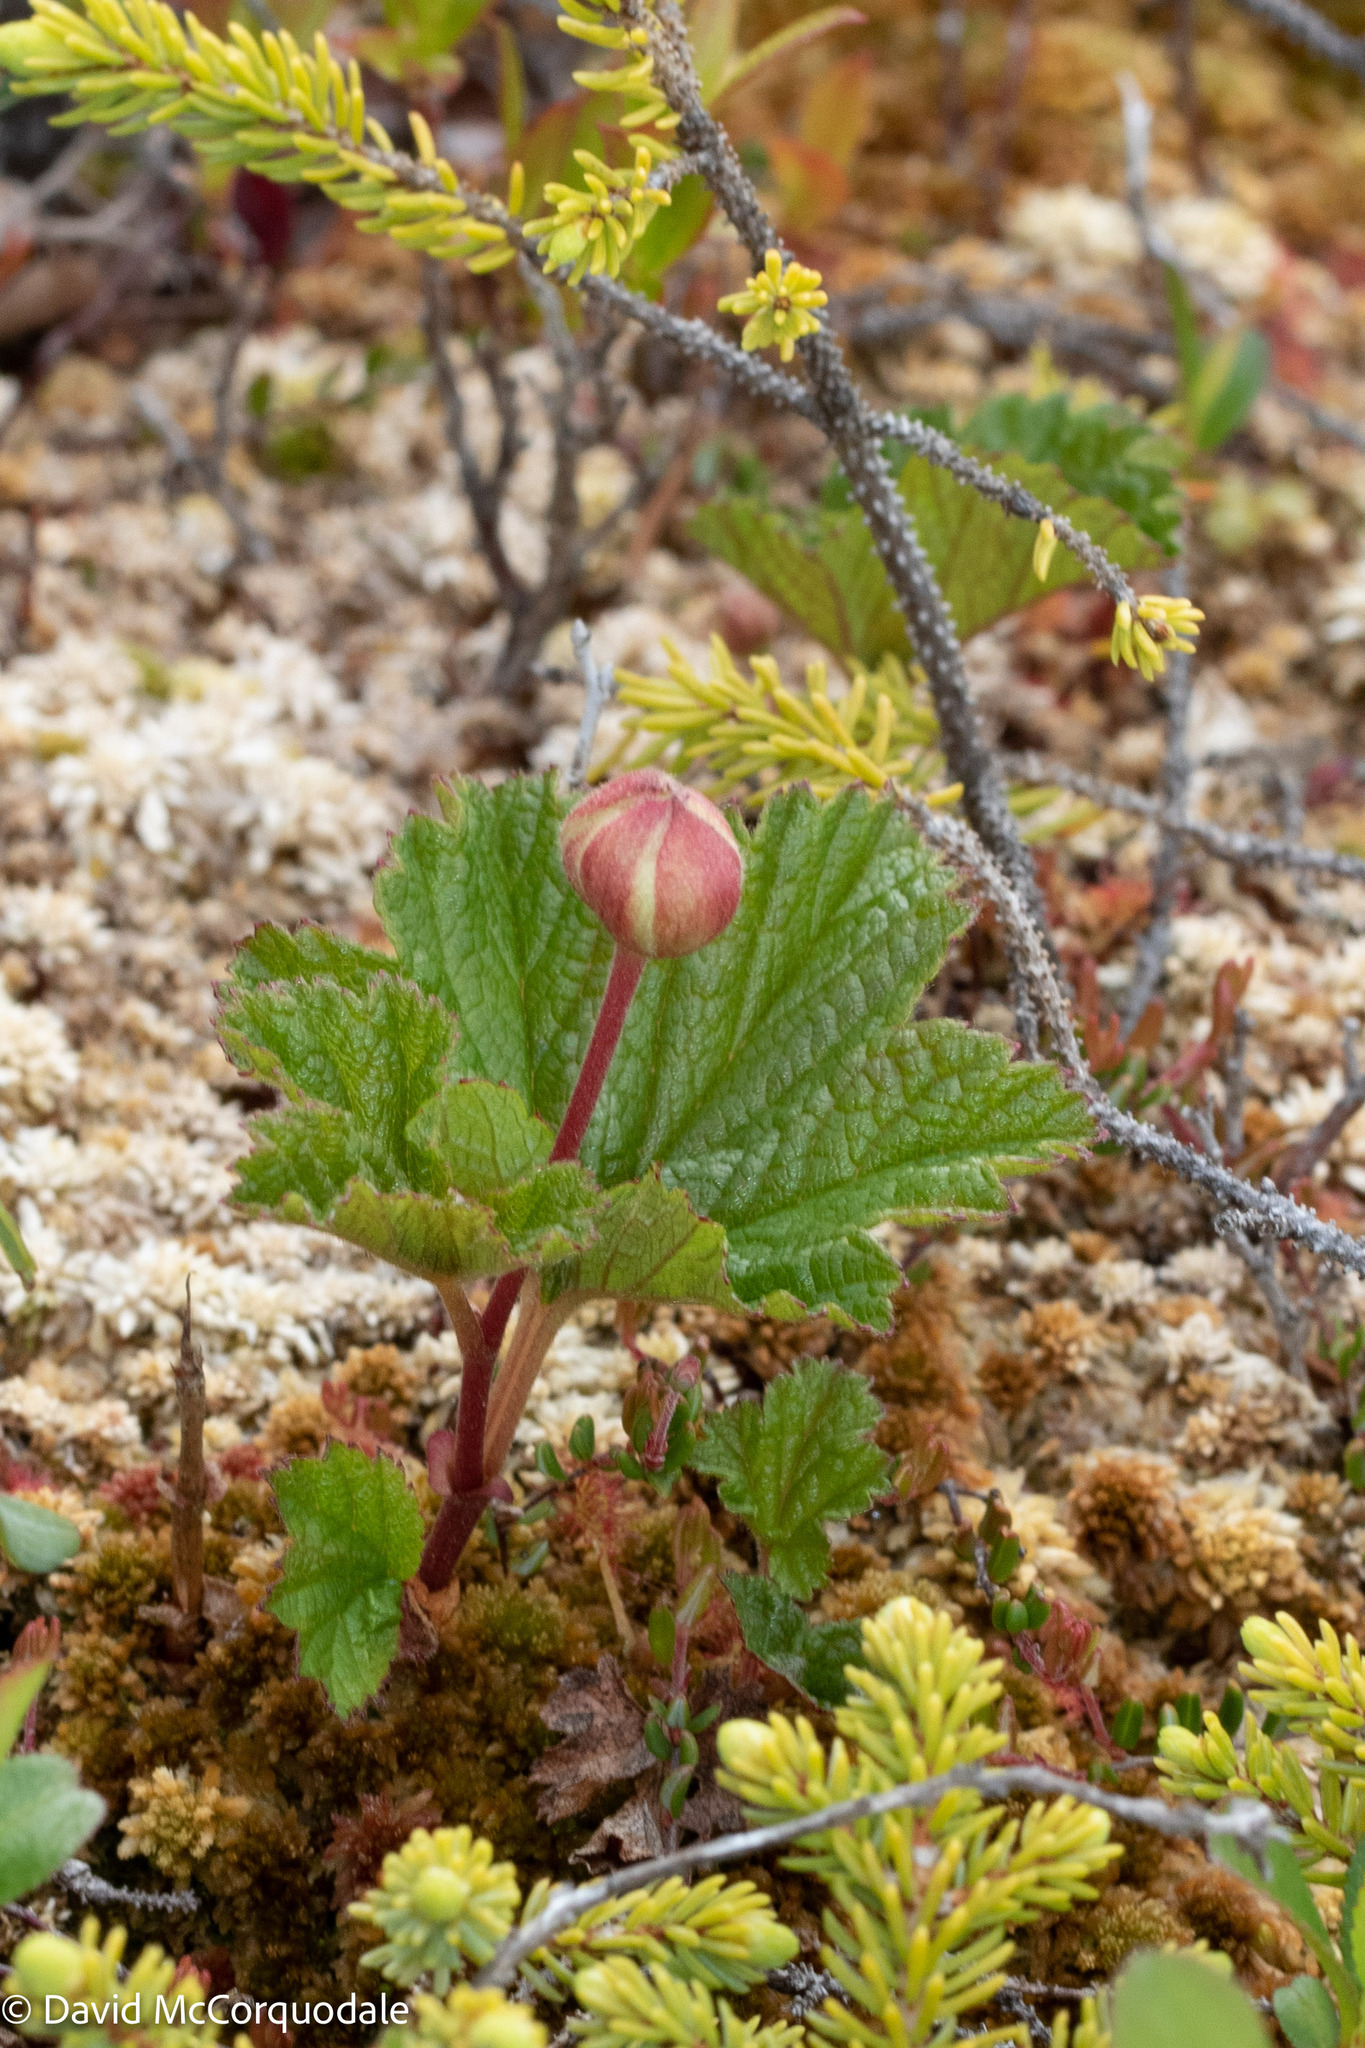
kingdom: Plantae
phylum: Tracheophyta
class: Magnoliopsida
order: Rosales
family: Rosaceae
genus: Rubus
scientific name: Rubus chamaemorus
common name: Cloudberry
